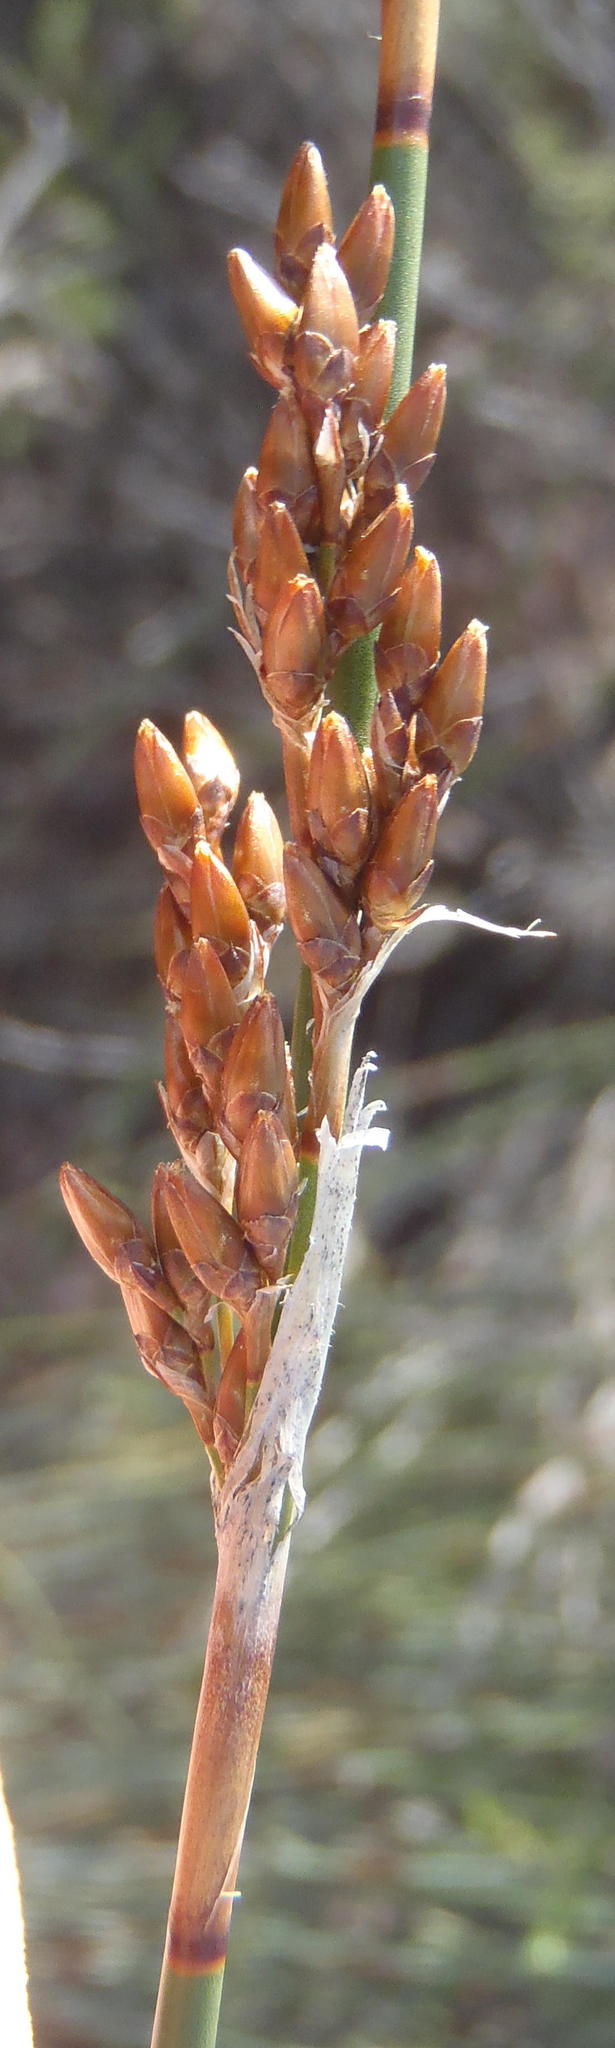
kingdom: Plantae
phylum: Tracheophyta
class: Liliopsida
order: Poales
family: Restionaceae
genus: Rhodocoma
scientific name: Rhodocoma arida
